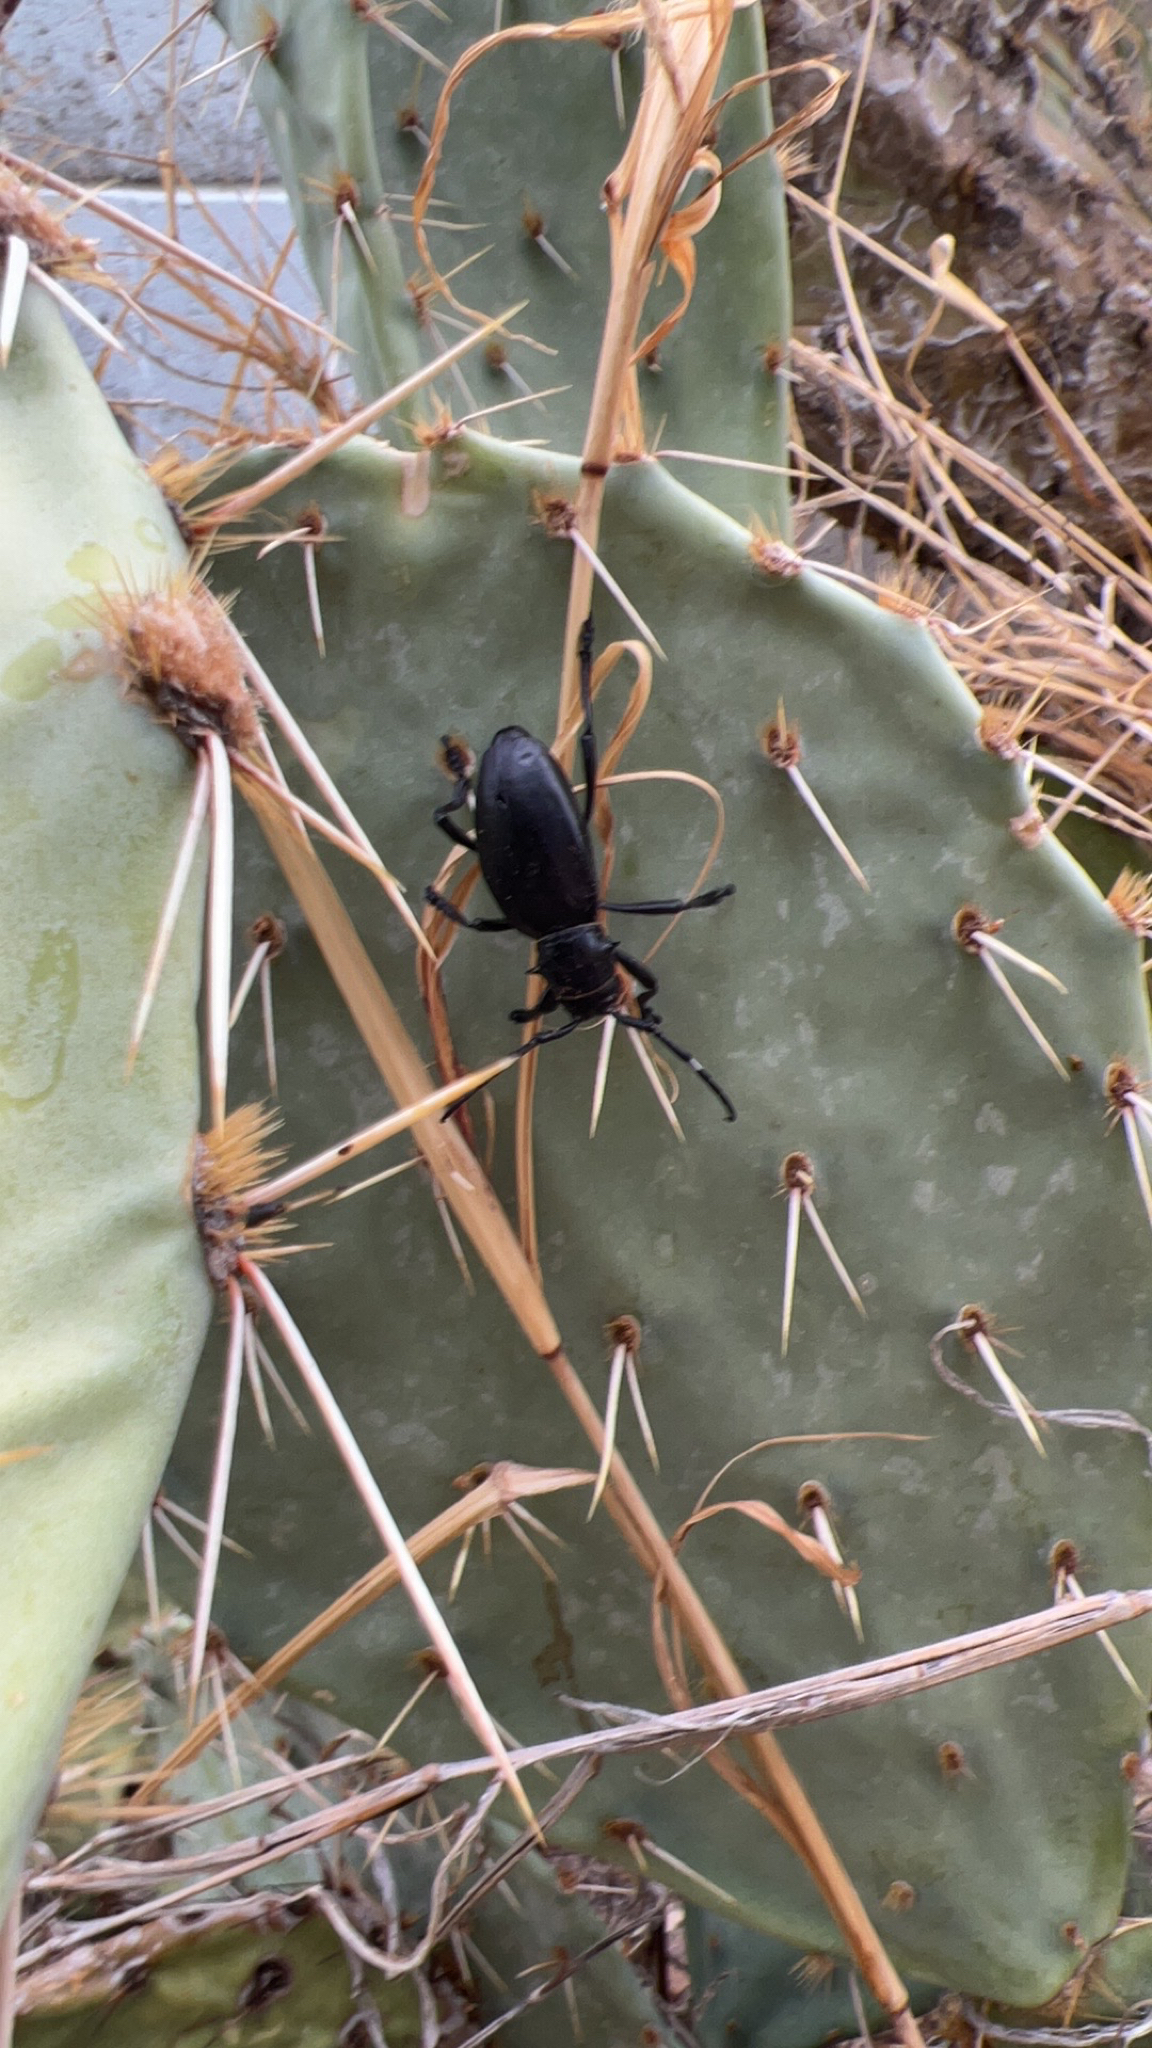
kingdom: Animalia
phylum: Arthropoda
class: Insecta
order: Coleoptera
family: Cerambycidae
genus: Moneilema
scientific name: Moneilema gigas
